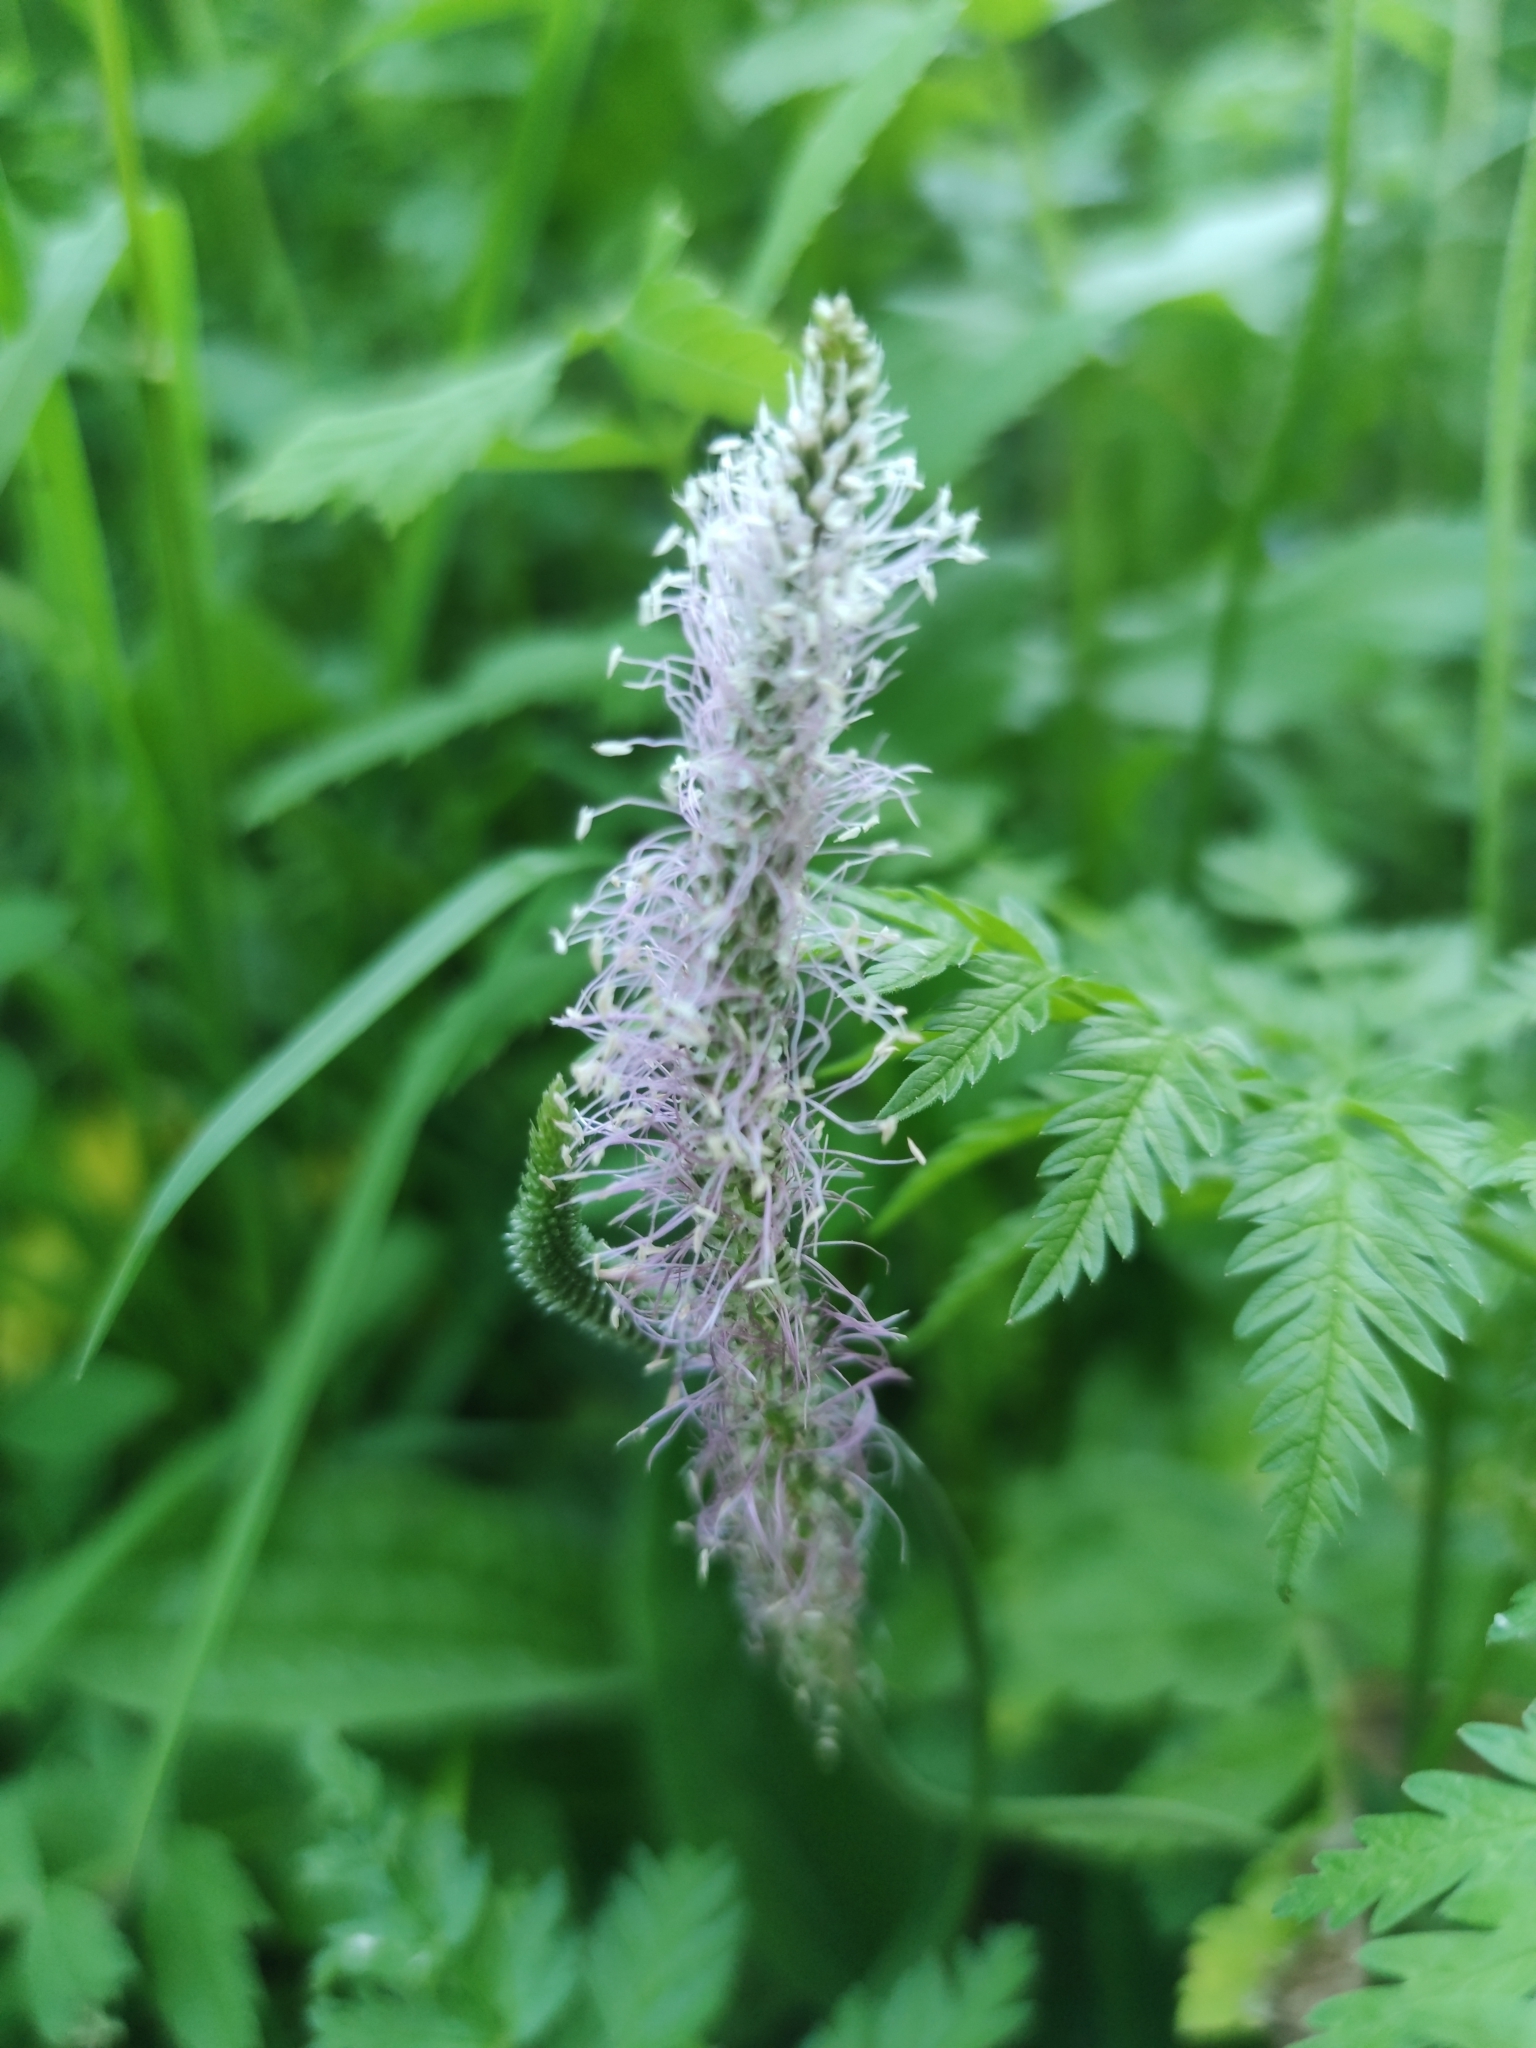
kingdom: Plantae
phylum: Tracheophyta
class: Magnoliopsida
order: Lamiales
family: Plantaginaceae
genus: Plantago
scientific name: Plantago media
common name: Hoary plantain
